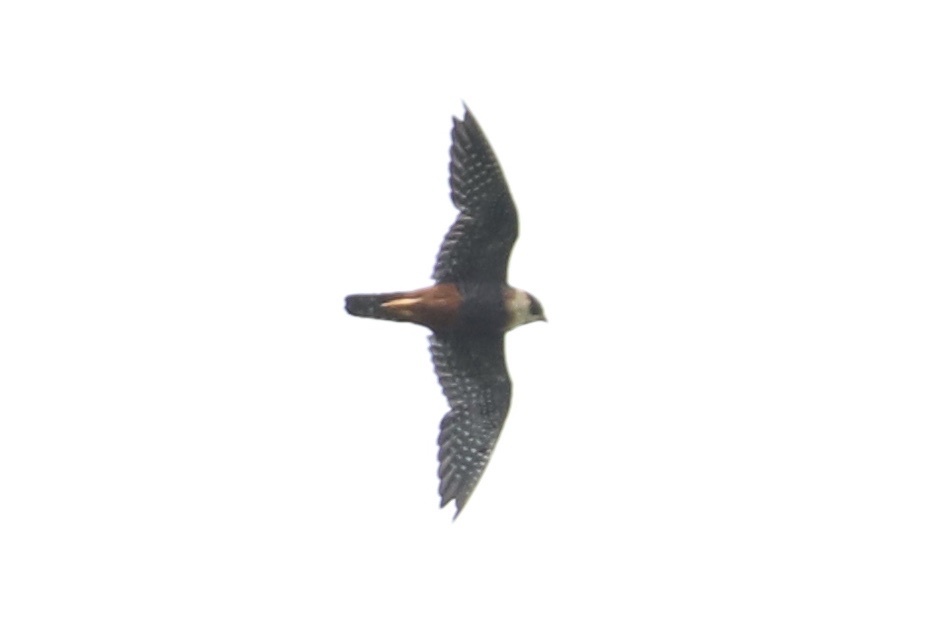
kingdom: Animalia
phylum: Chordata
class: Aves
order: Falconiformes
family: Falconidae
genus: Falco
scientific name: Falco rufigularis
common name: Bat falcon
